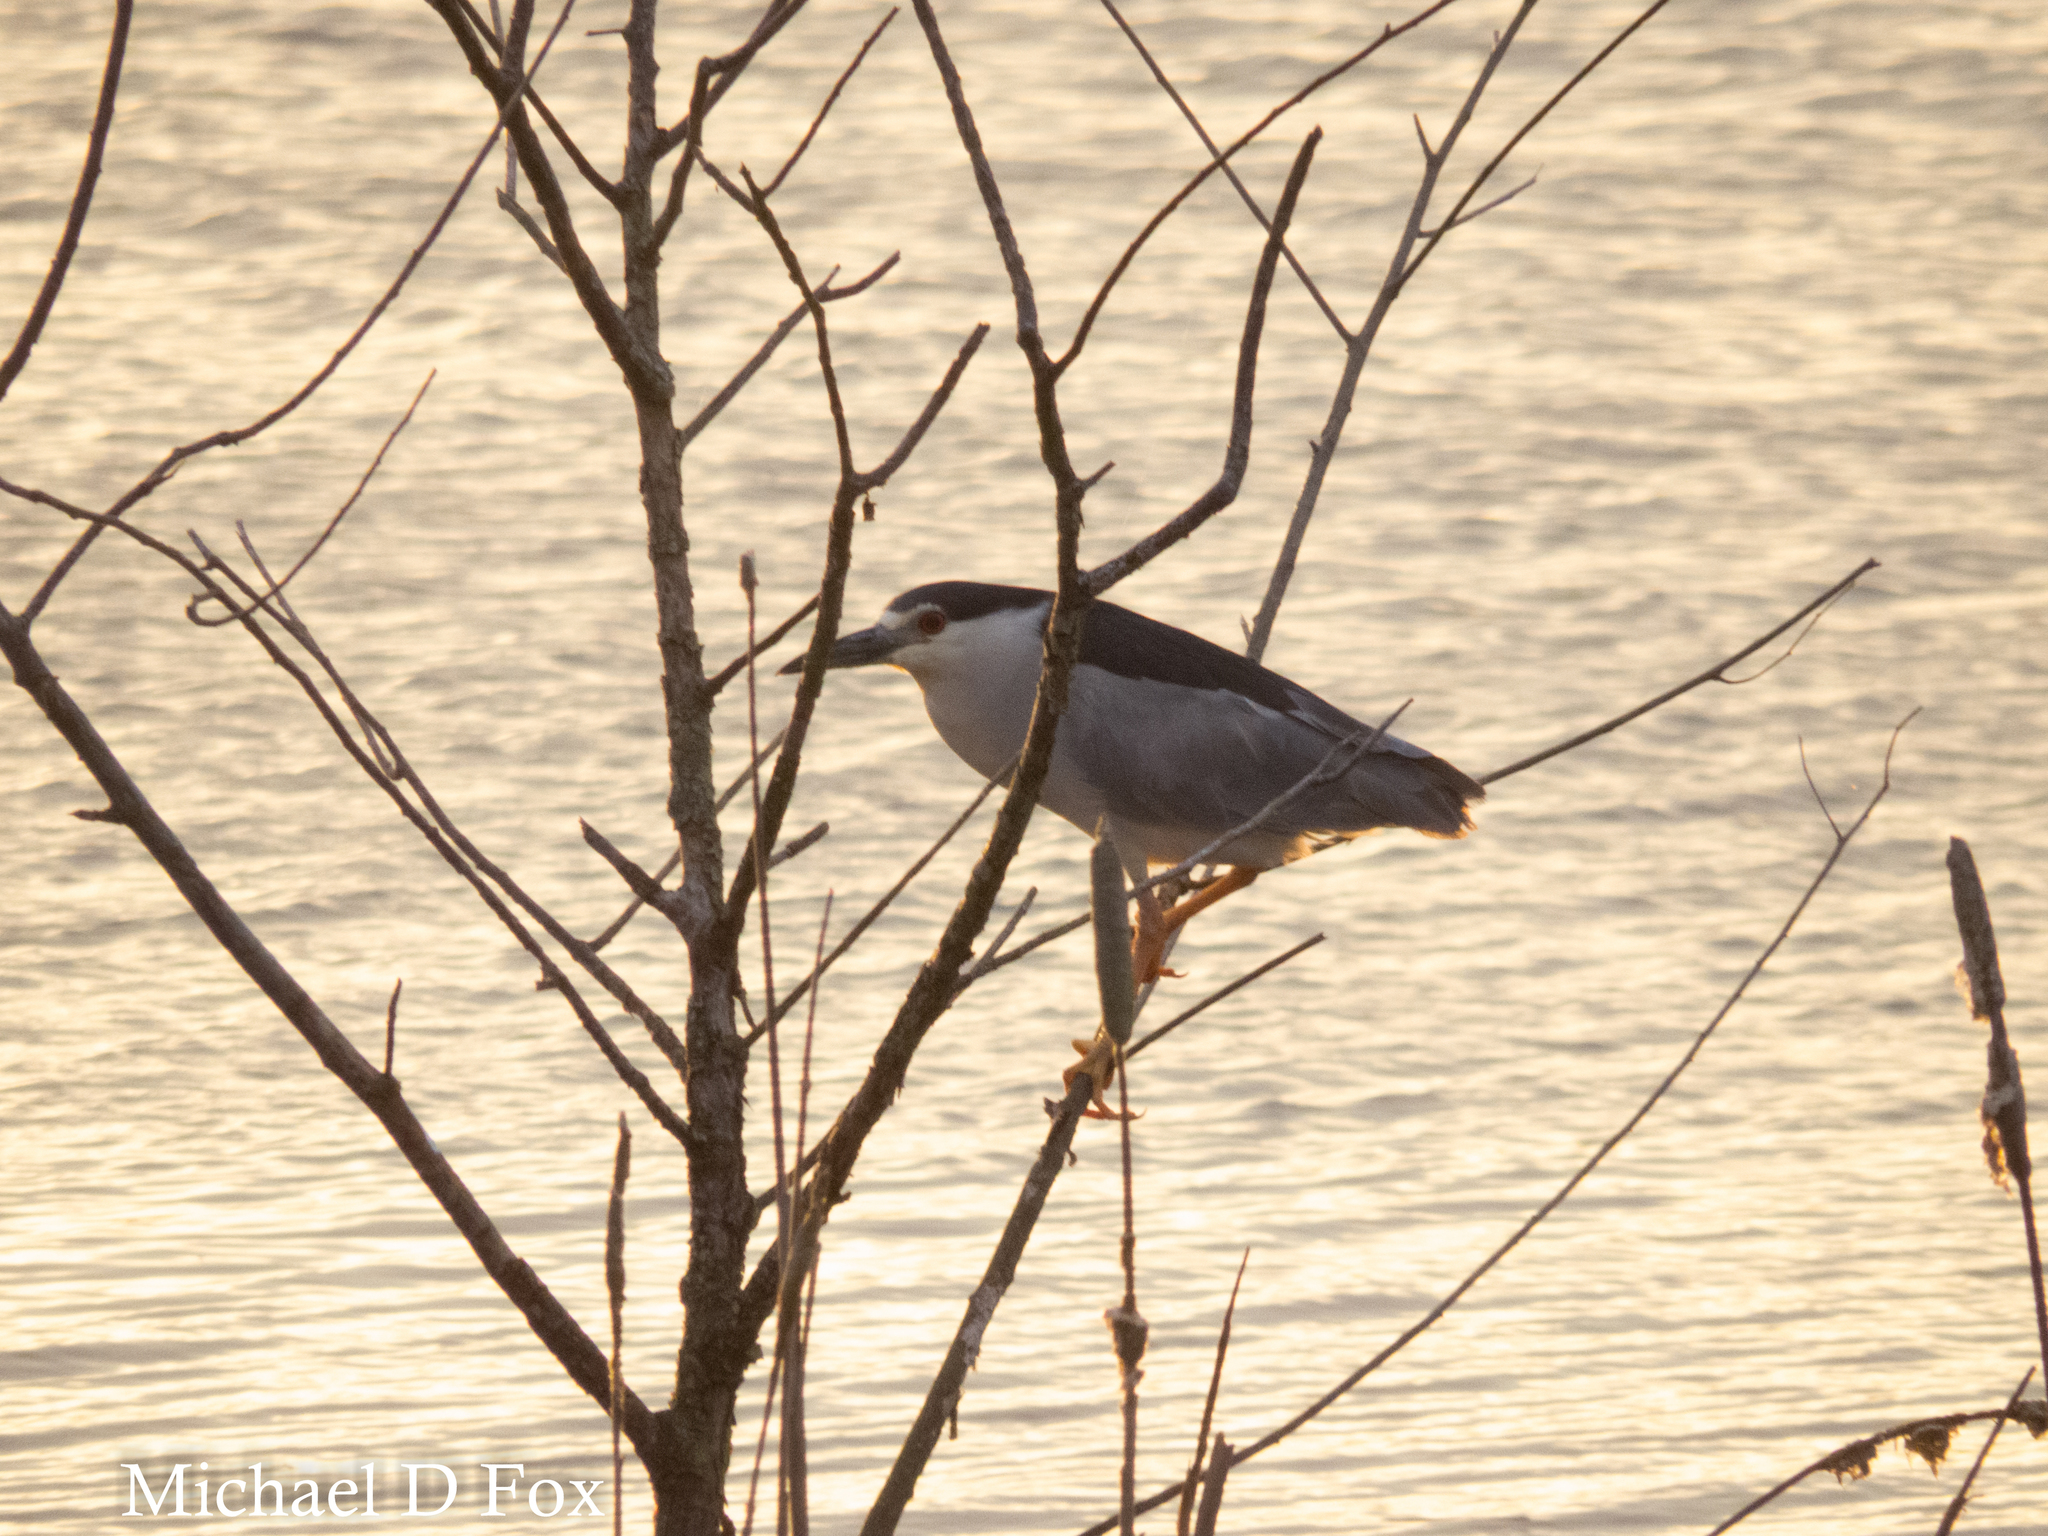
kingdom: Animalia
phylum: Chordata
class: Aves
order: Pelecaniformes
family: Ardeidae
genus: Nycticorax
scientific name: Nycticorax nycticorax
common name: Black-crowned night heron
